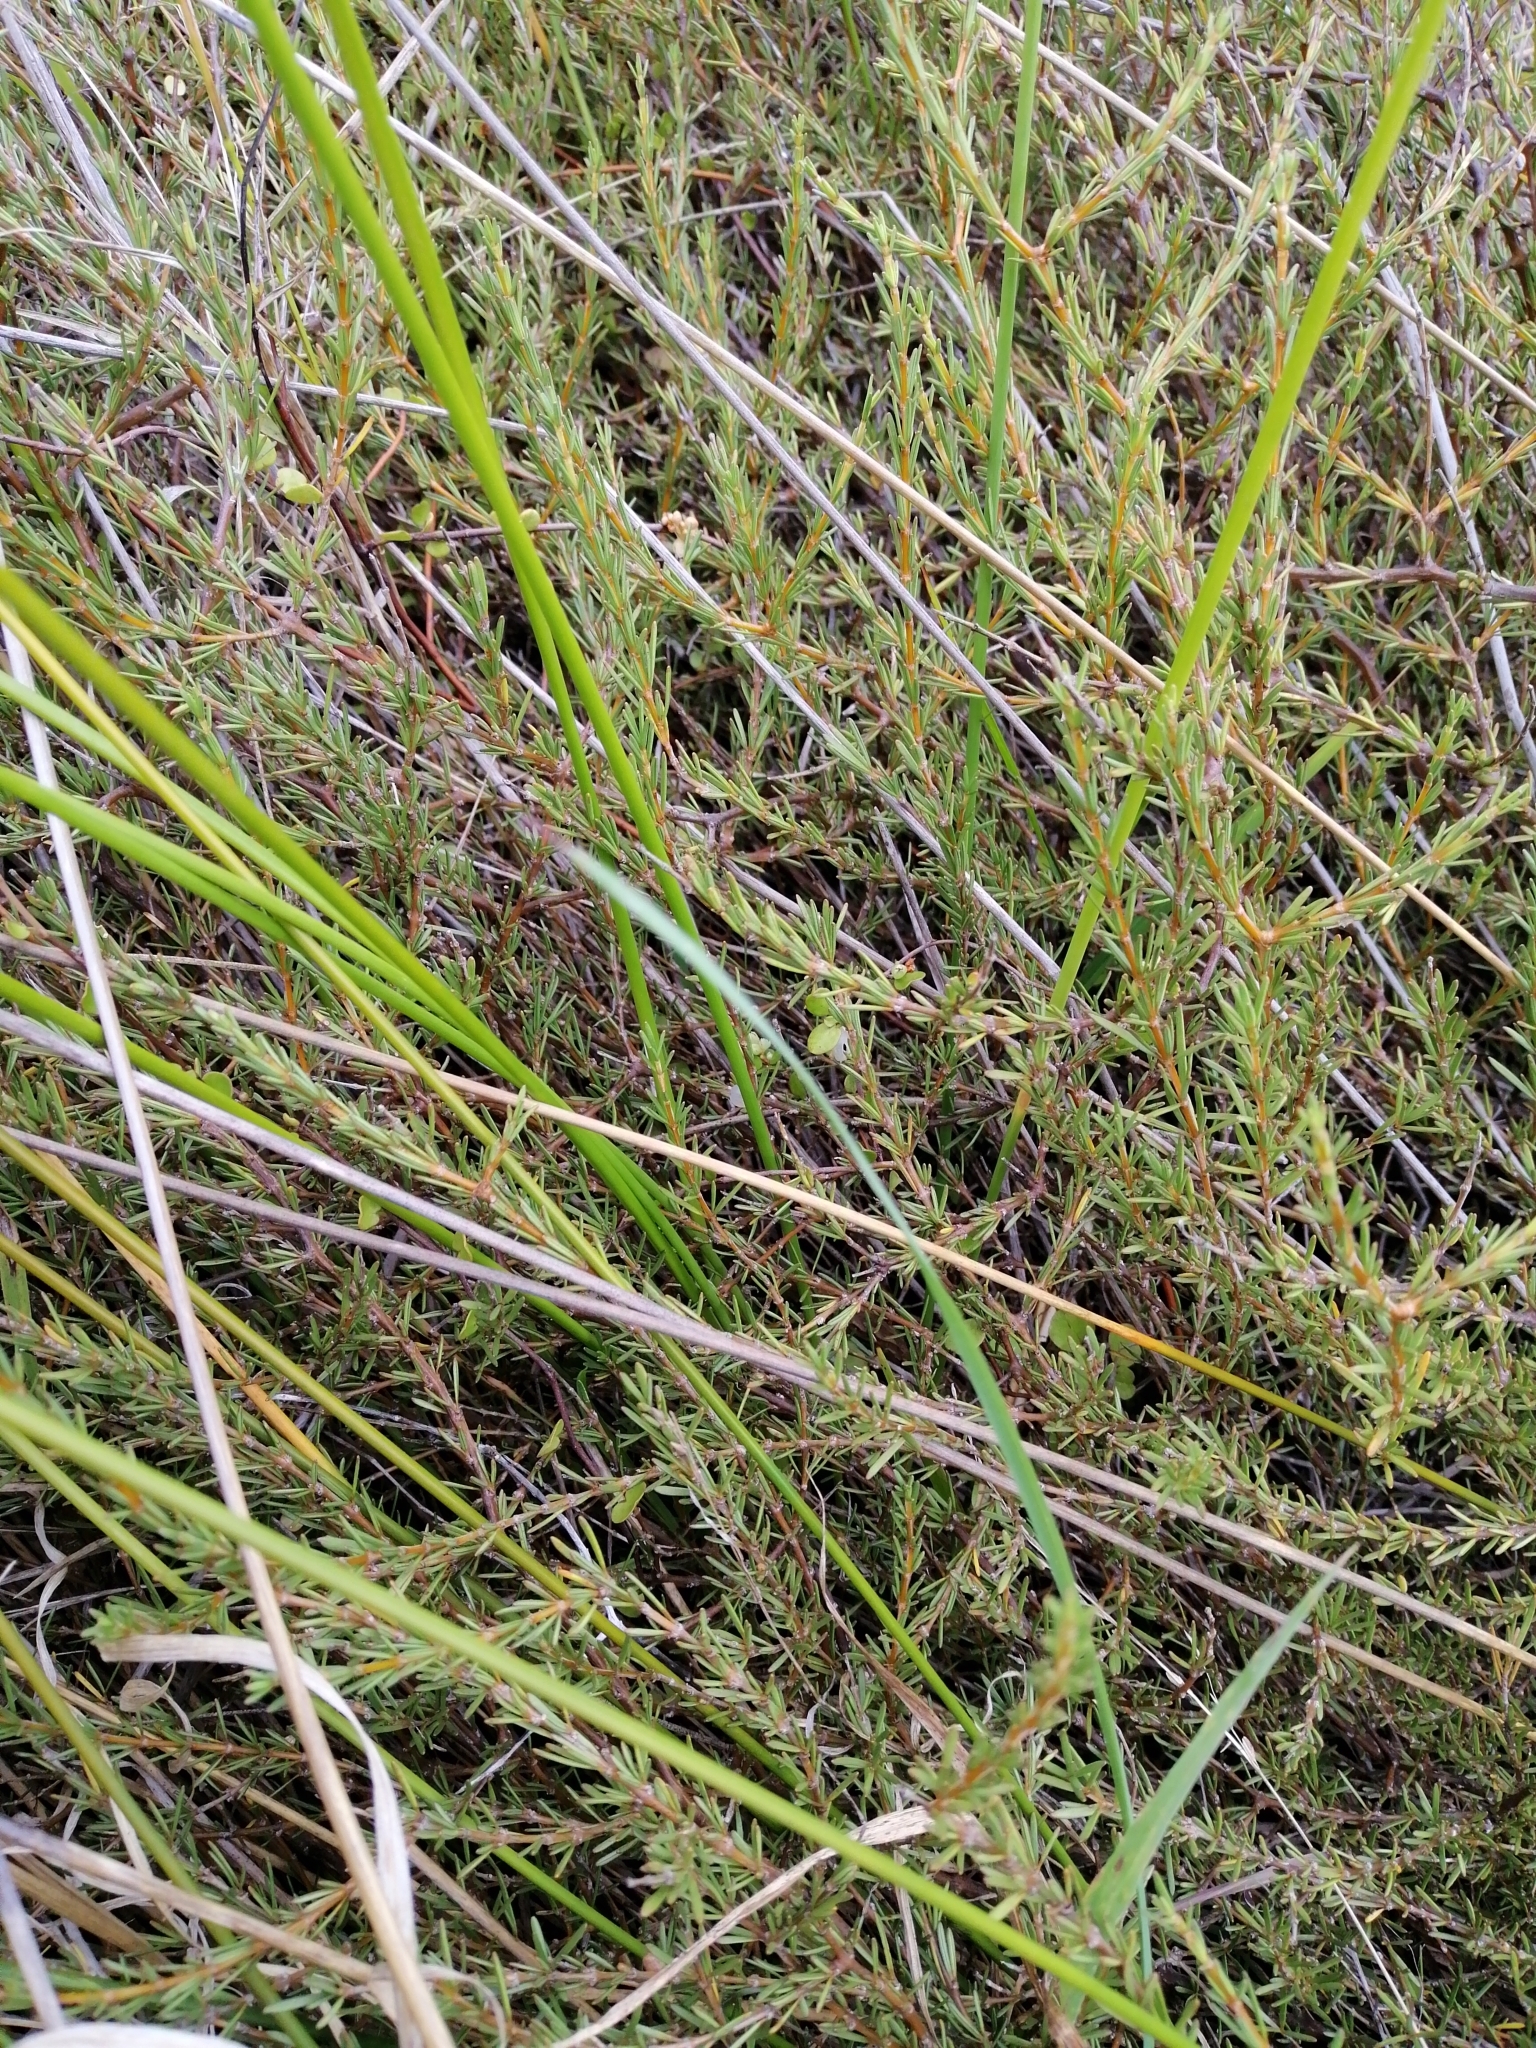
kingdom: Plantae
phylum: Tracheophyta
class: Magnoliopsida
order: Gentianales
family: Rubiaceae
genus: Coprosma
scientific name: Coprosma acerosa
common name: Sand coprosma
